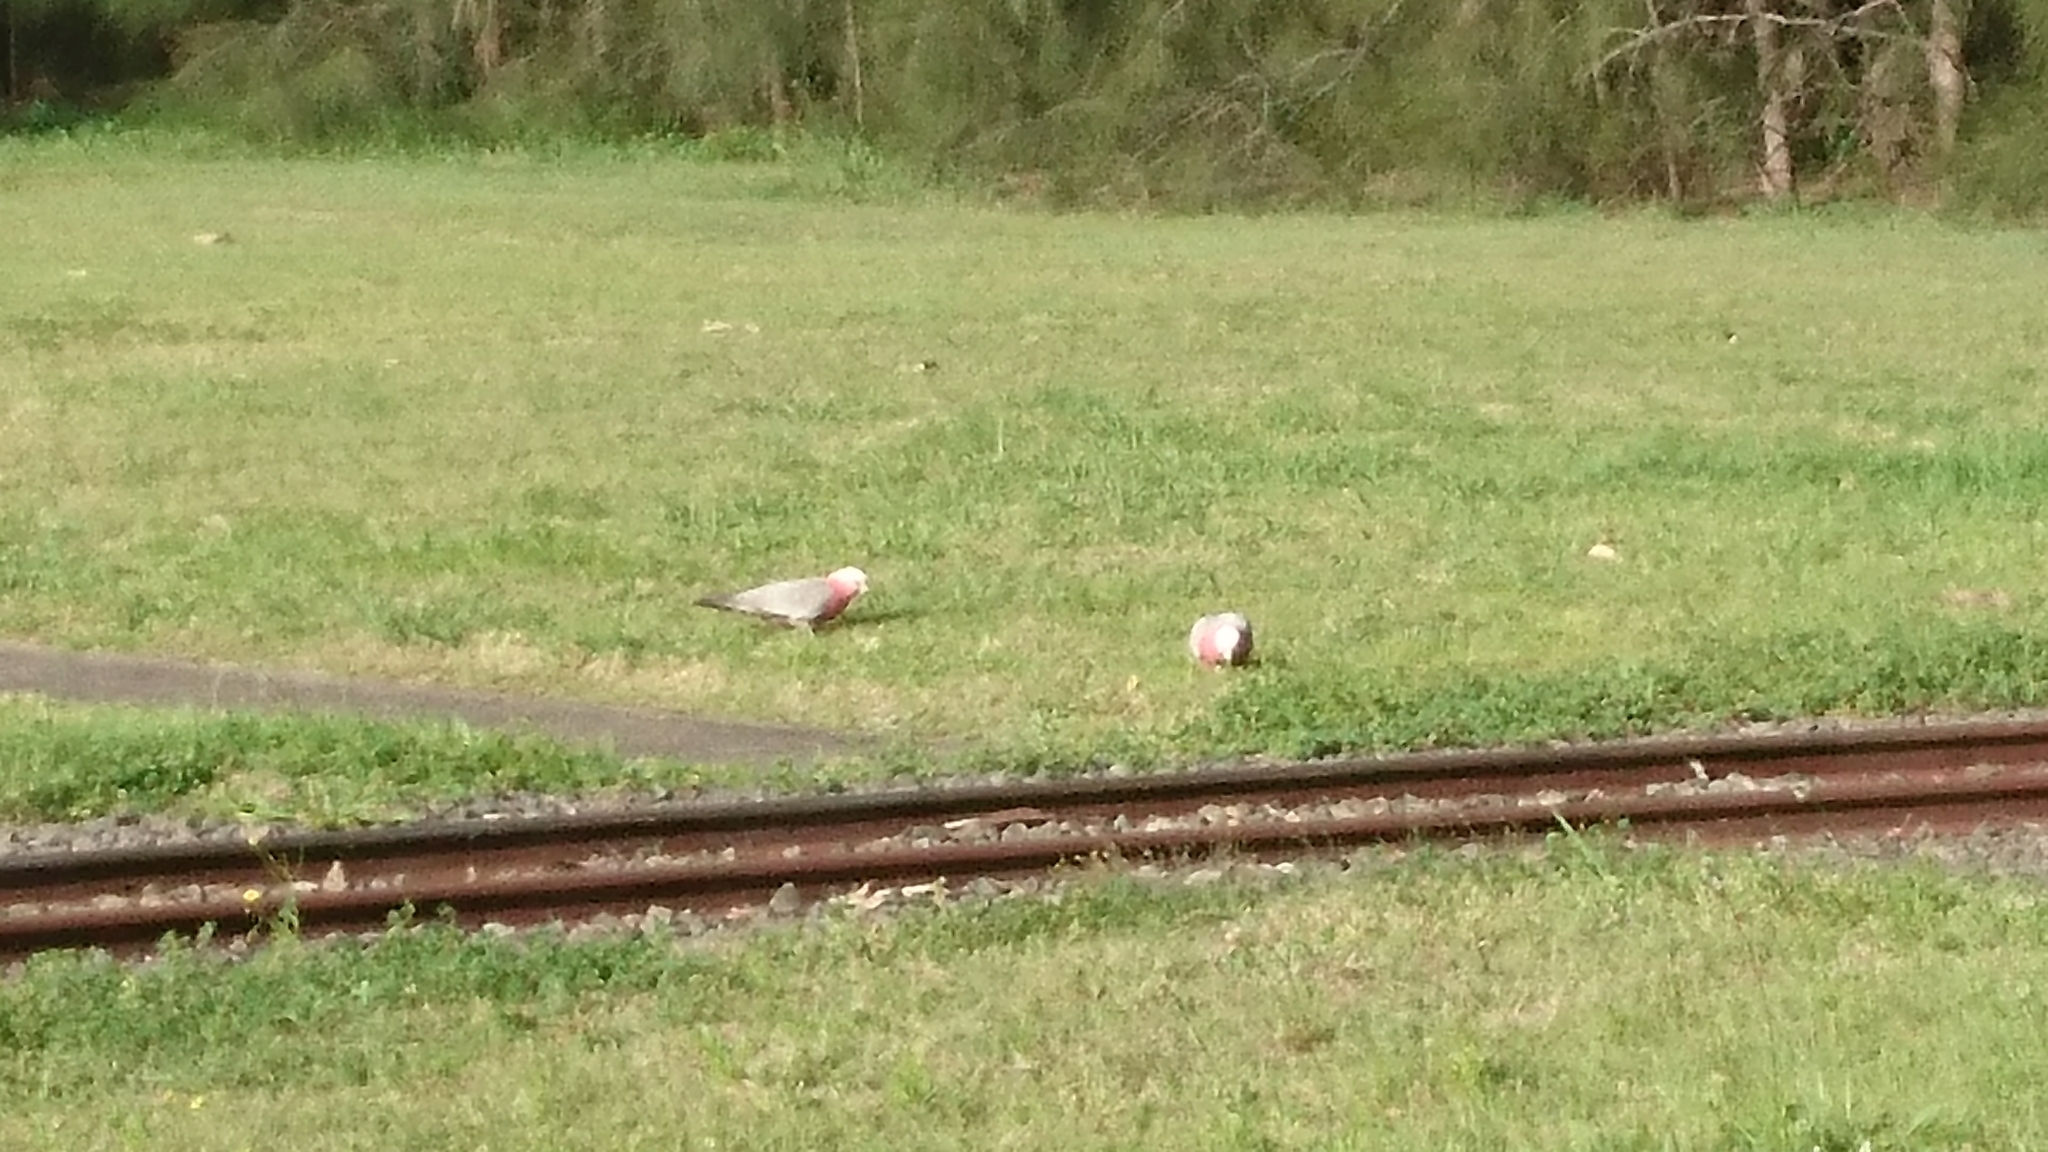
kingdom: Animalia
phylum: Chordata
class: Aves
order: Psittaciformes
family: Psittacidae
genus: Eolophus
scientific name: Eolophus roseicapilla
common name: Galah
